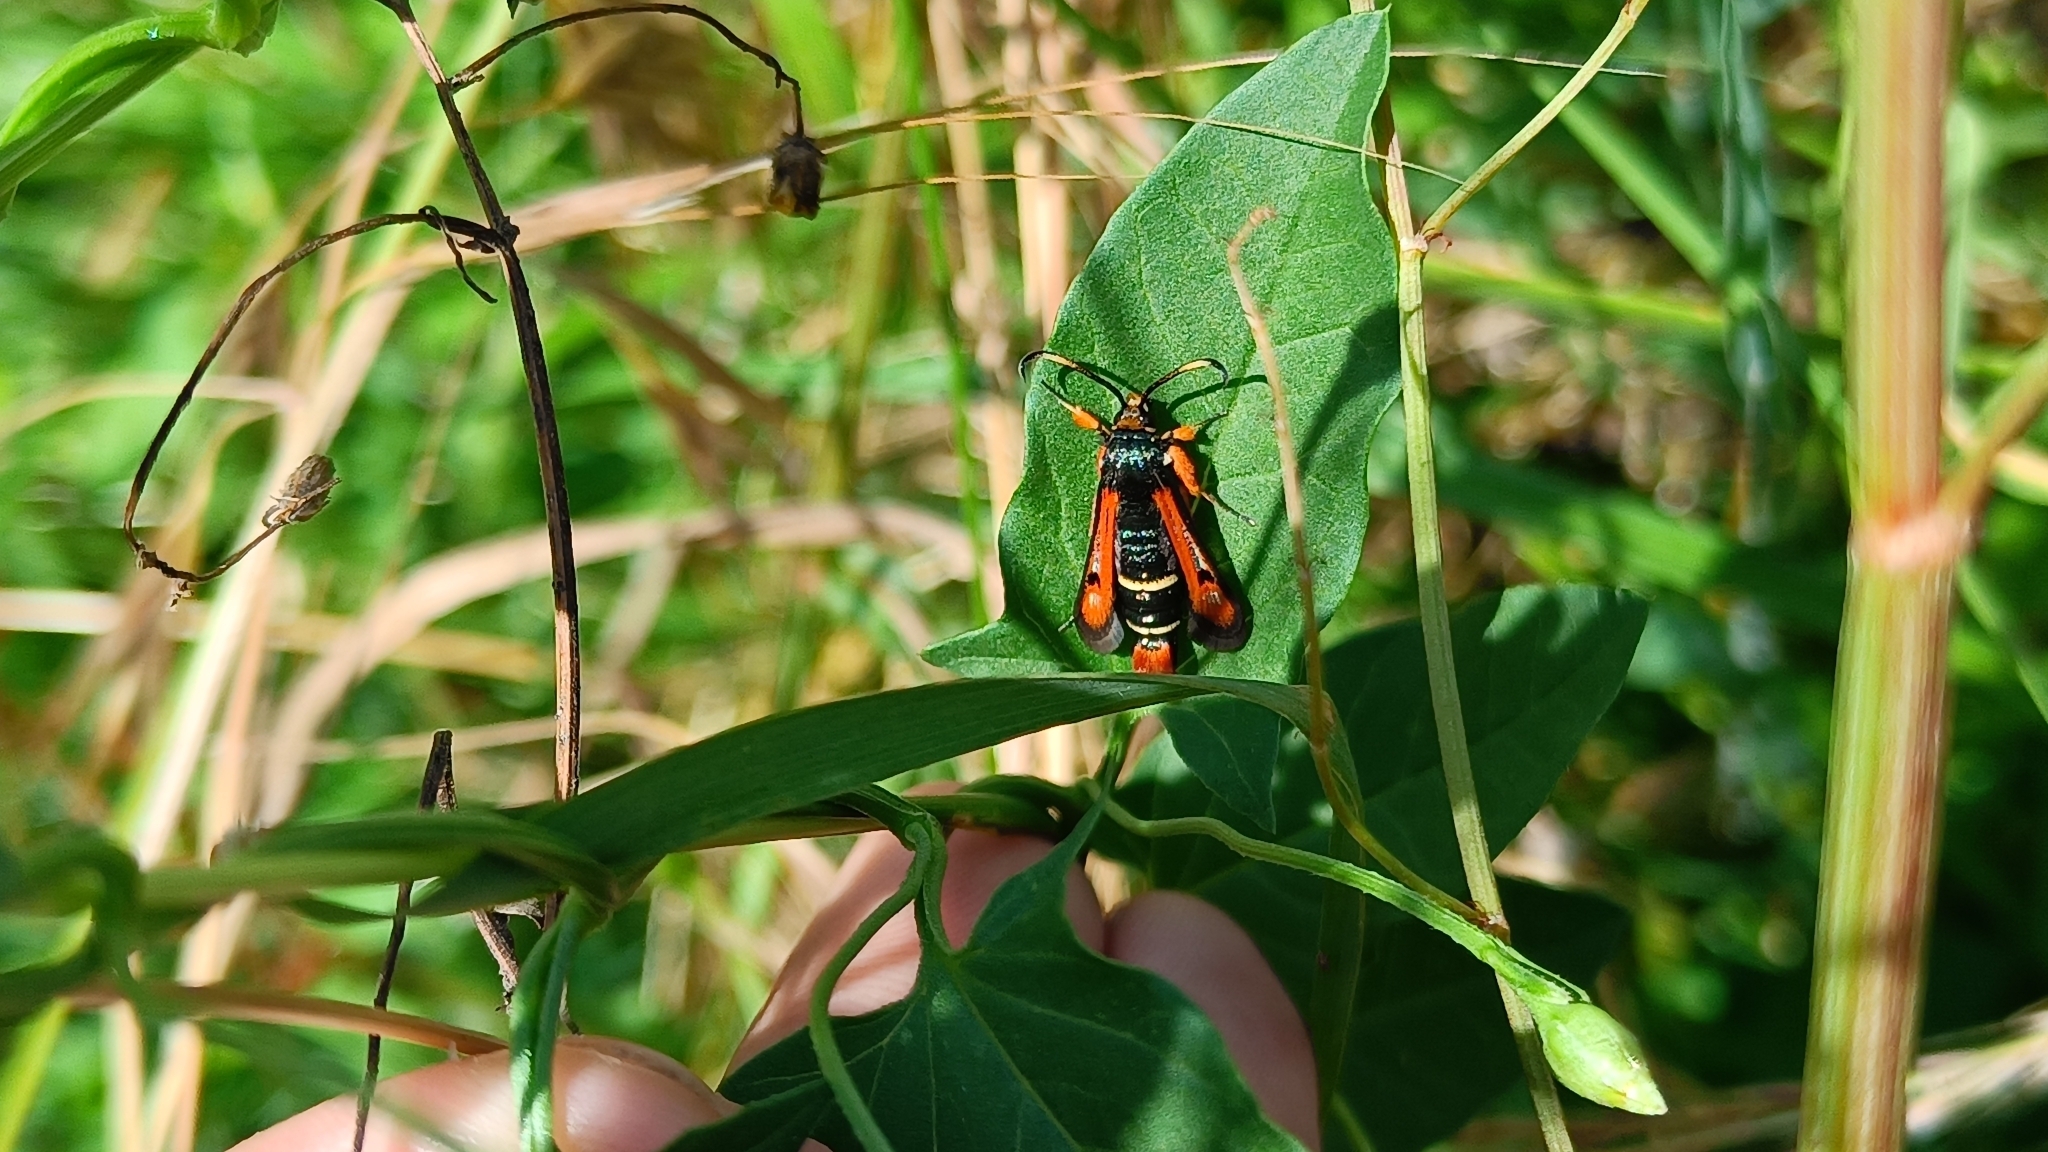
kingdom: Animalia
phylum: Arthropoda
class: Insecta
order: Lepidoptera
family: Sesiidae
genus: Pyropteron
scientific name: Pyropteron chrysidiforme
